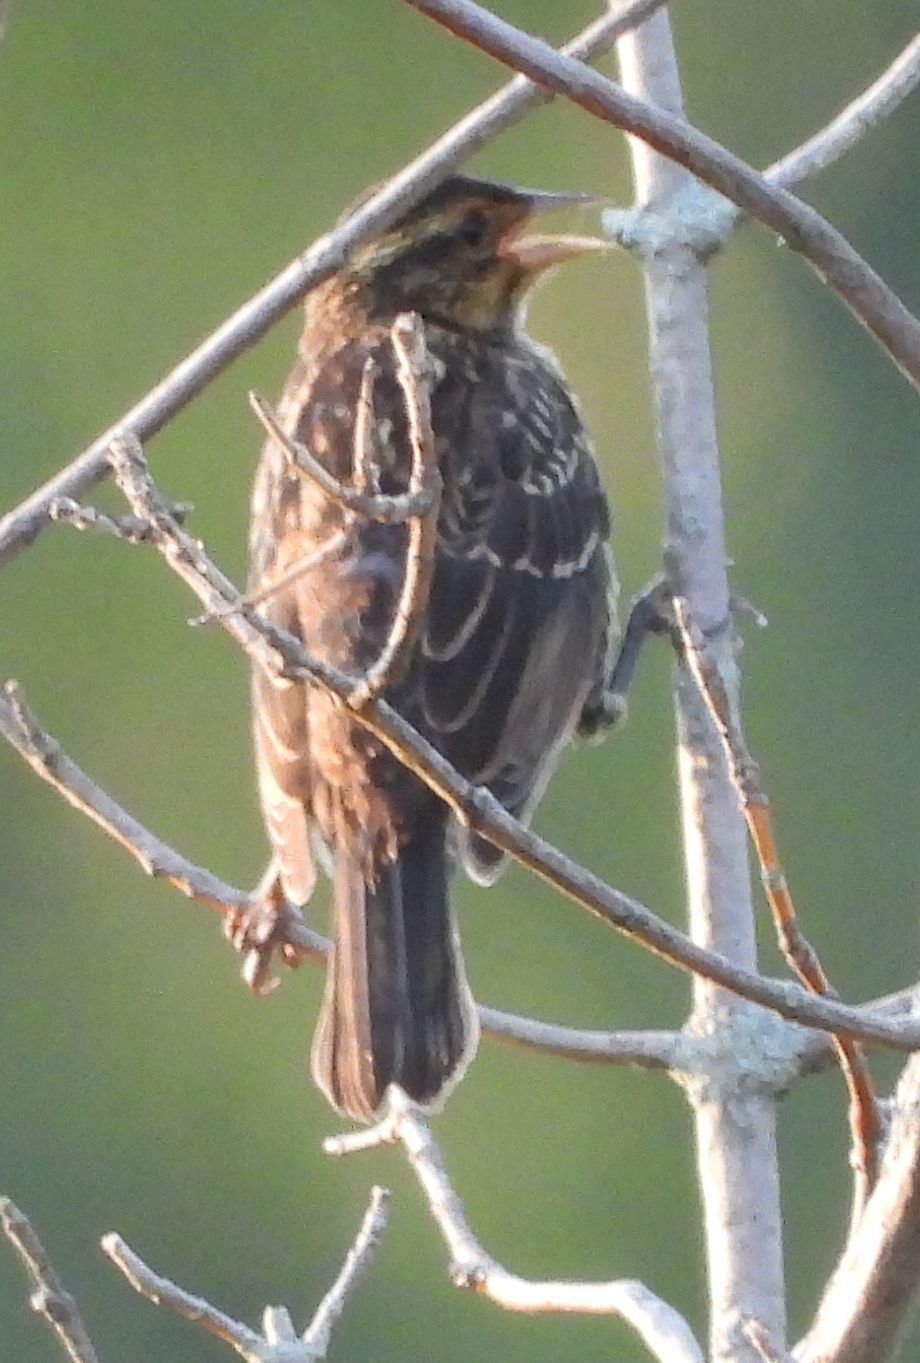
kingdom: Animalia
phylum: Chordata
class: Aves
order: Passeriformes
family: Icteridae
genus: Agelaius
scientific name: Agelaius phoeniceus
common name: Red-winged blackbird
